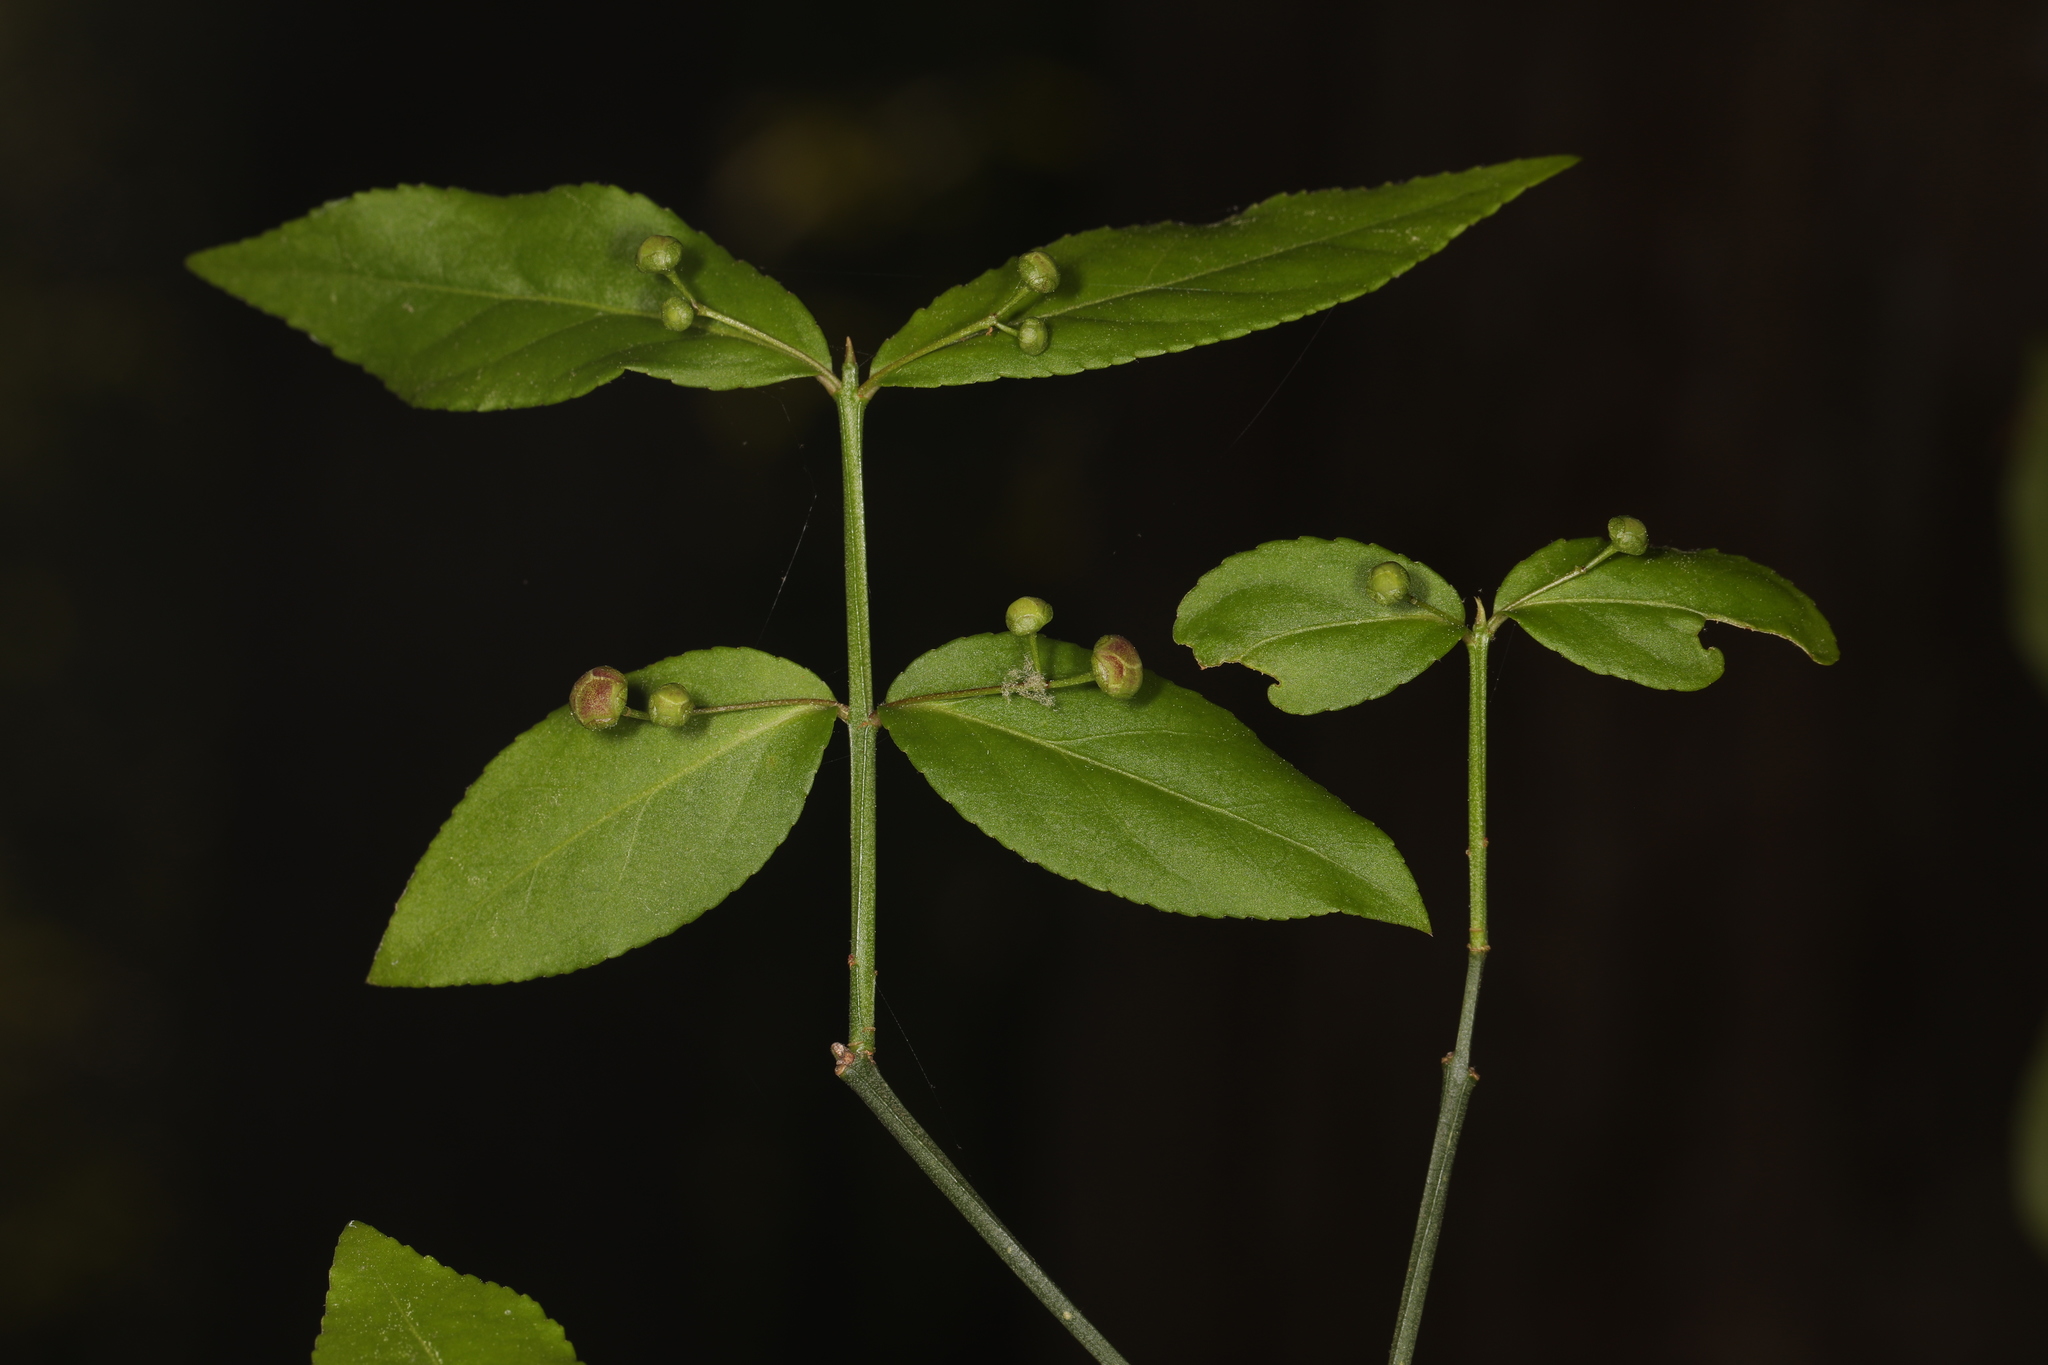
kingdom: Plantae
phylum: Tracheophyta
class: Magnoliopsida
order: Celastrales
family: Celastraceae
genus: Euonymus
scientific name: Euonymus americanus
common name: Bursting-heart
